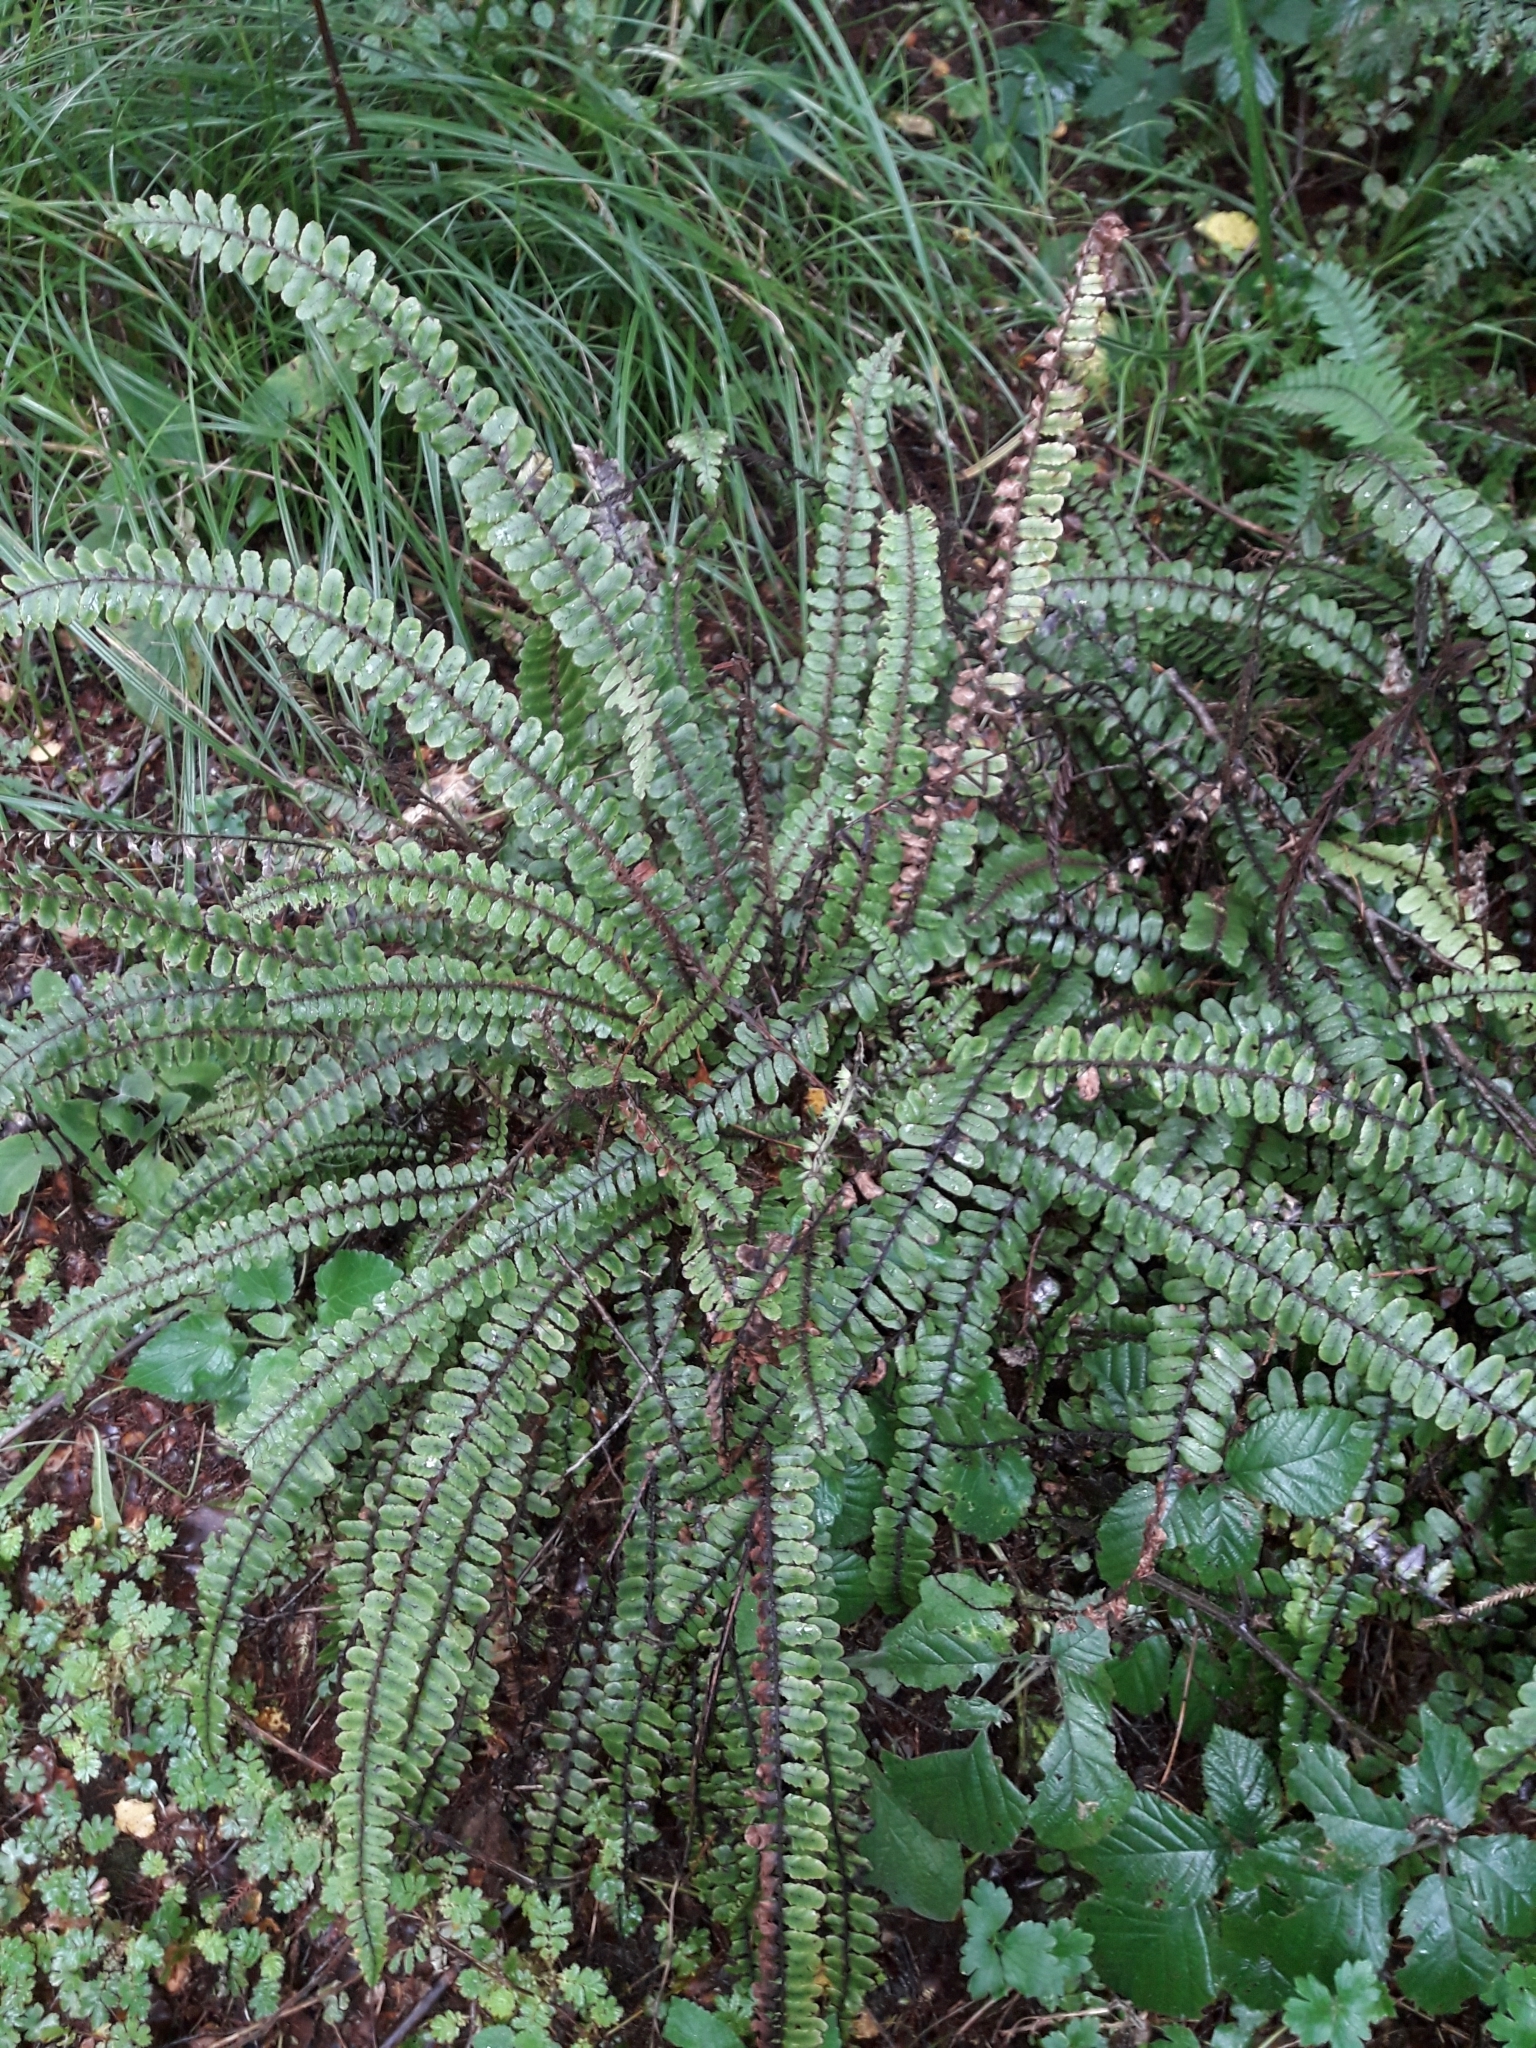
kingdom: Plantae
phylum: Tracheophyta
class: Polypodiopsida
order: Polypodiales
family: Blechnaceae
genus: Cranfillia
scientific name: Cranfillia fluviatilis
